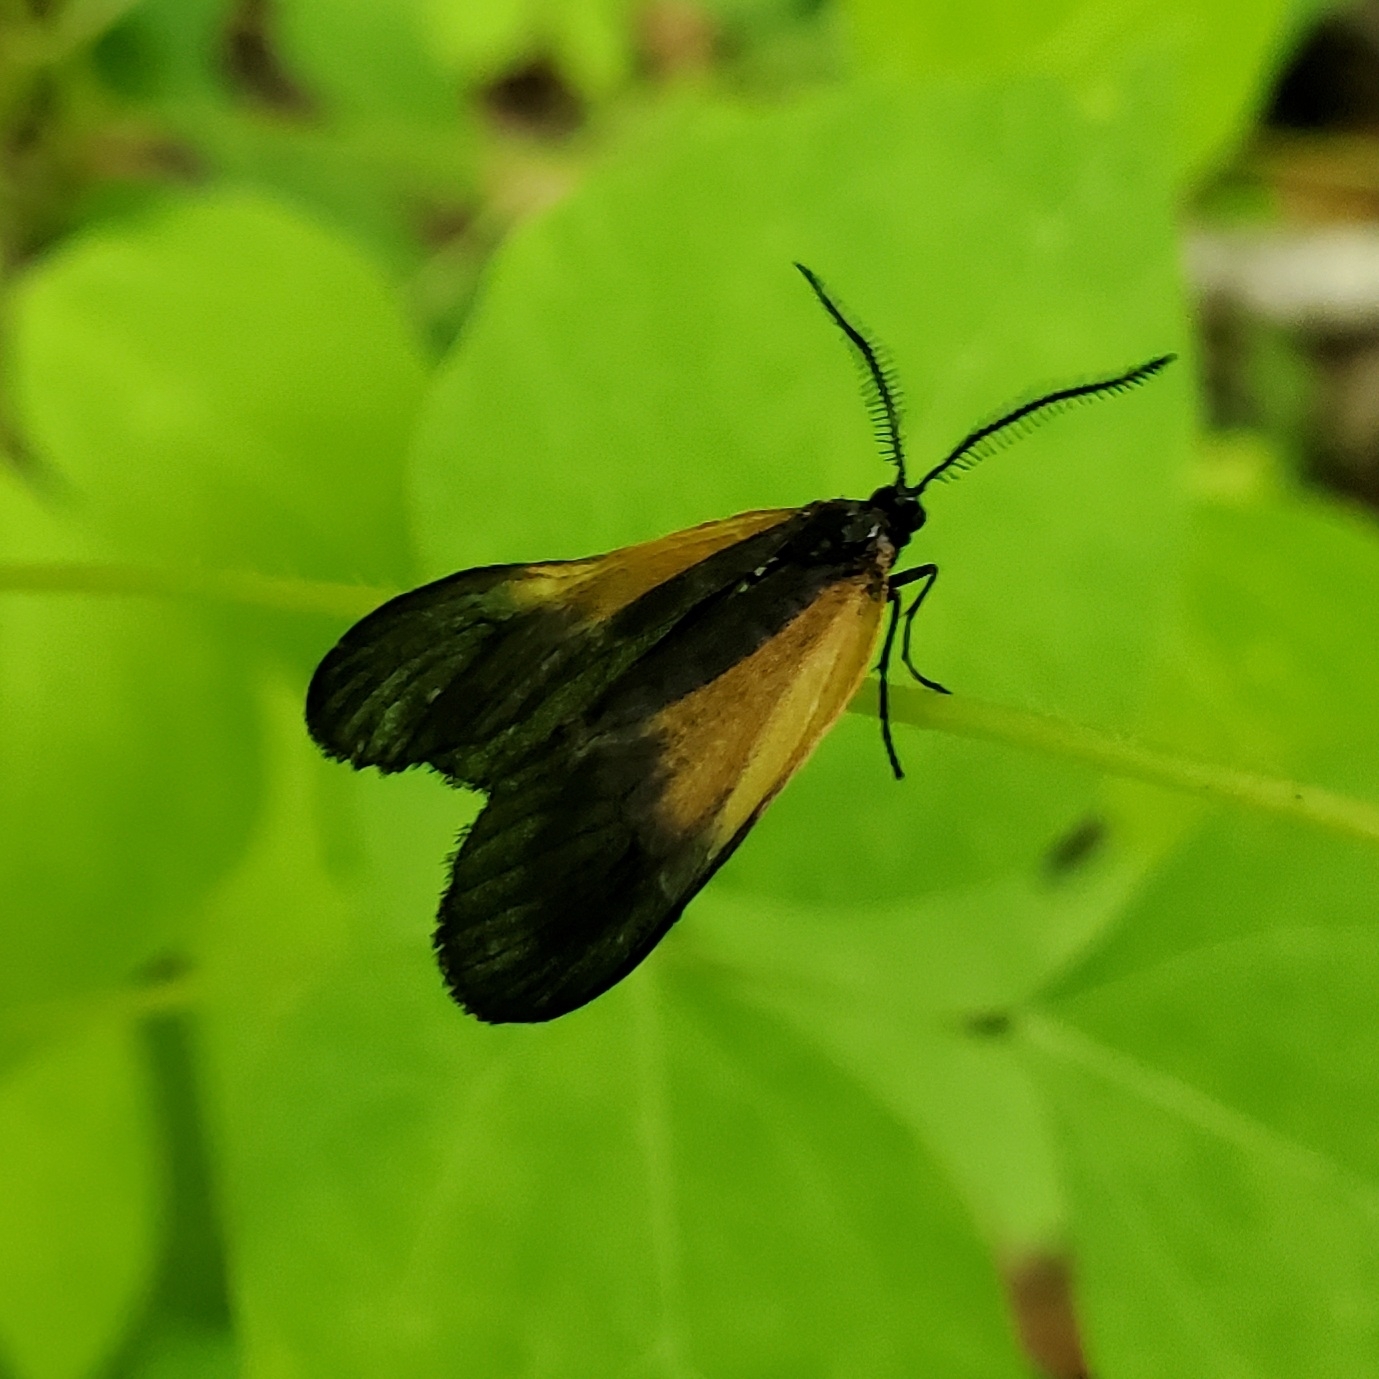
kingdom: Animalia
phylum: Arthropoda
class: Insecta
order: Lepidoptera
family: Zygaenidae
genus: Malthaca
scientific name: Malthaca dimidiata
